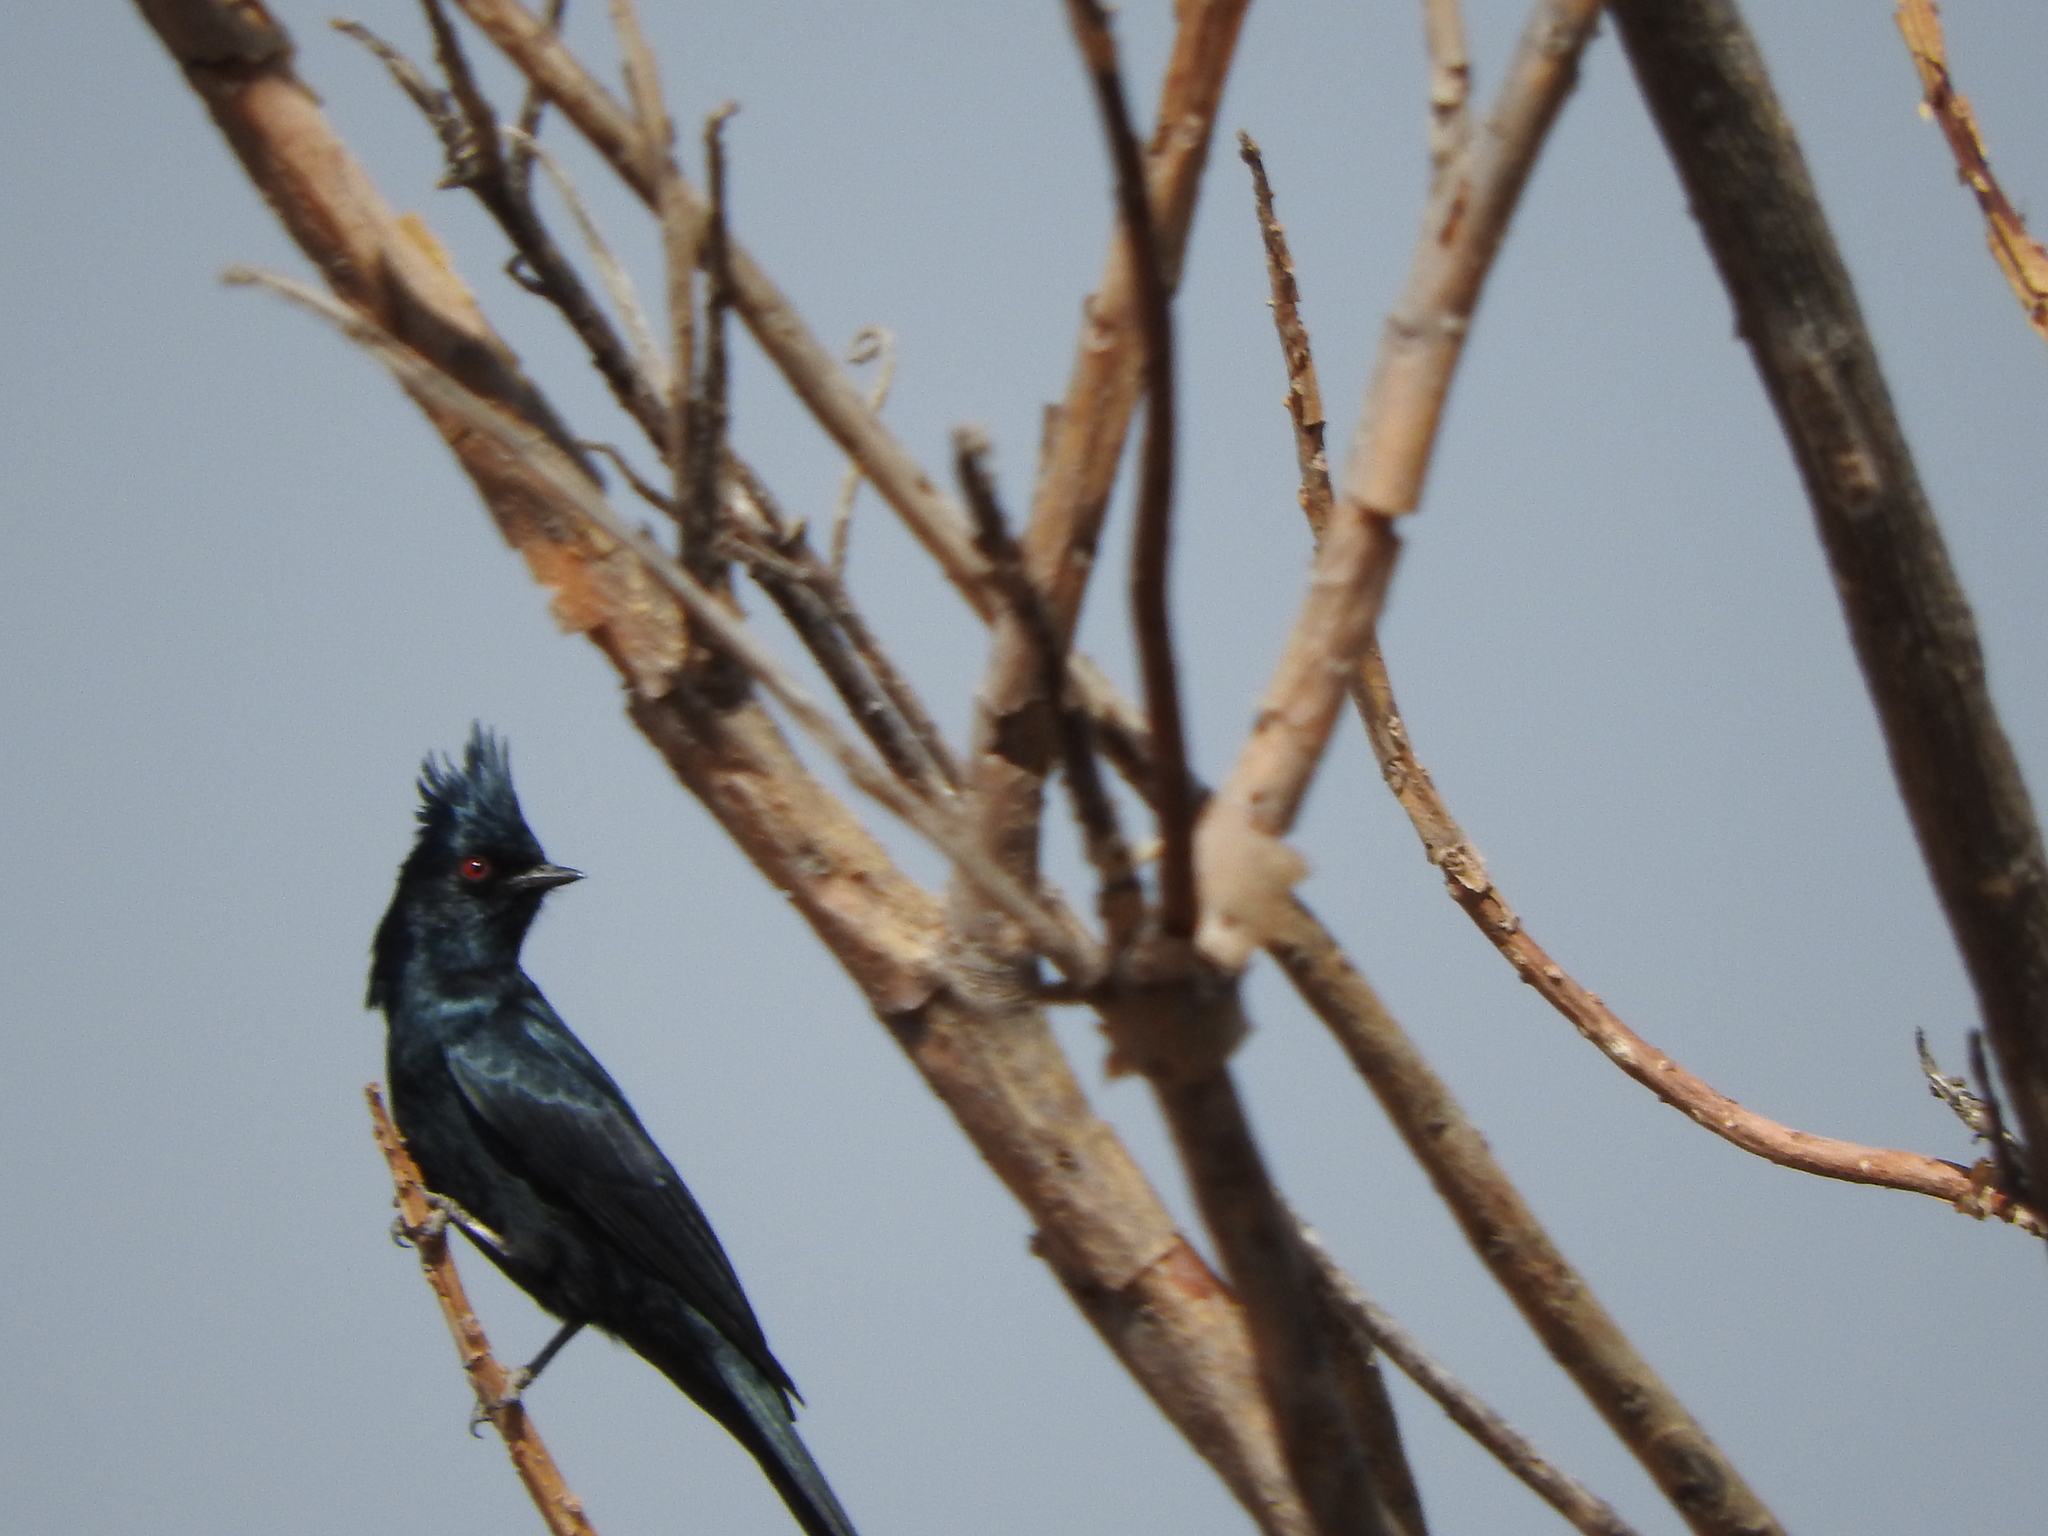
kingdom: Animalia
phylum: Chordata
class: Aves
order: Passeriformes
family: Ptilogonatidae
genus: Phainopepla
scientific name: Phainopepla nitens
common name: Phainopepla
